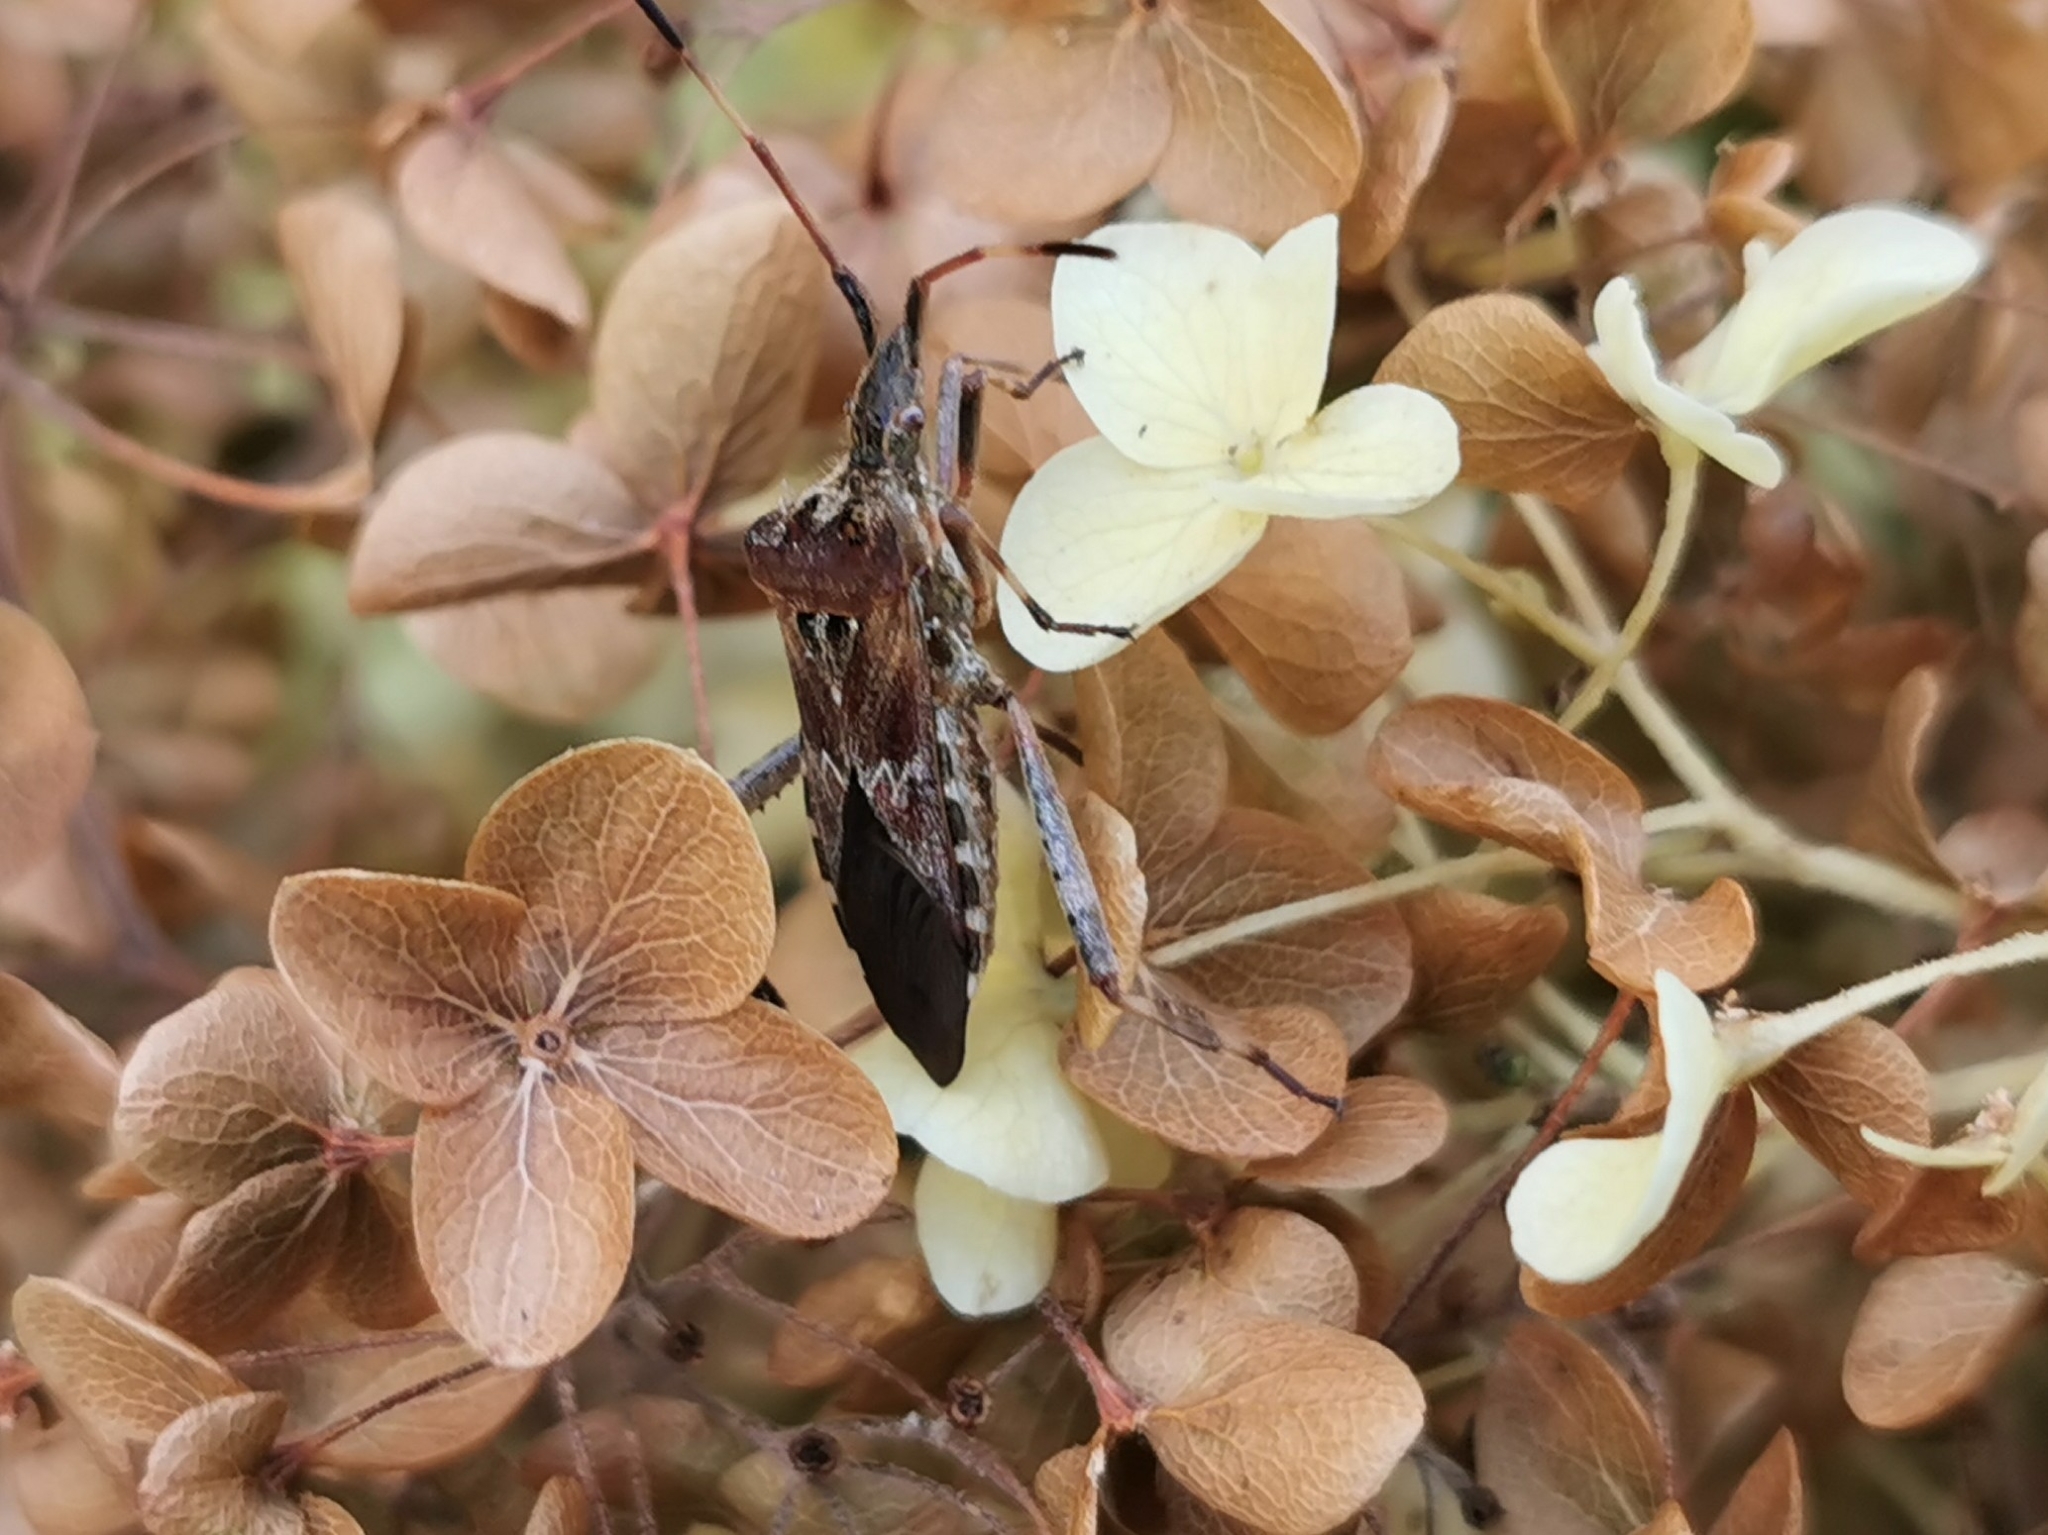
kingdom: Animalia
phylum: Arthropoda
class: Insecta
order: Hemiptera
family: Coreidae
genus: Leptoglossus
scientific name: Leptoglossus occidentalis
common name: Western conifer-seed bug
